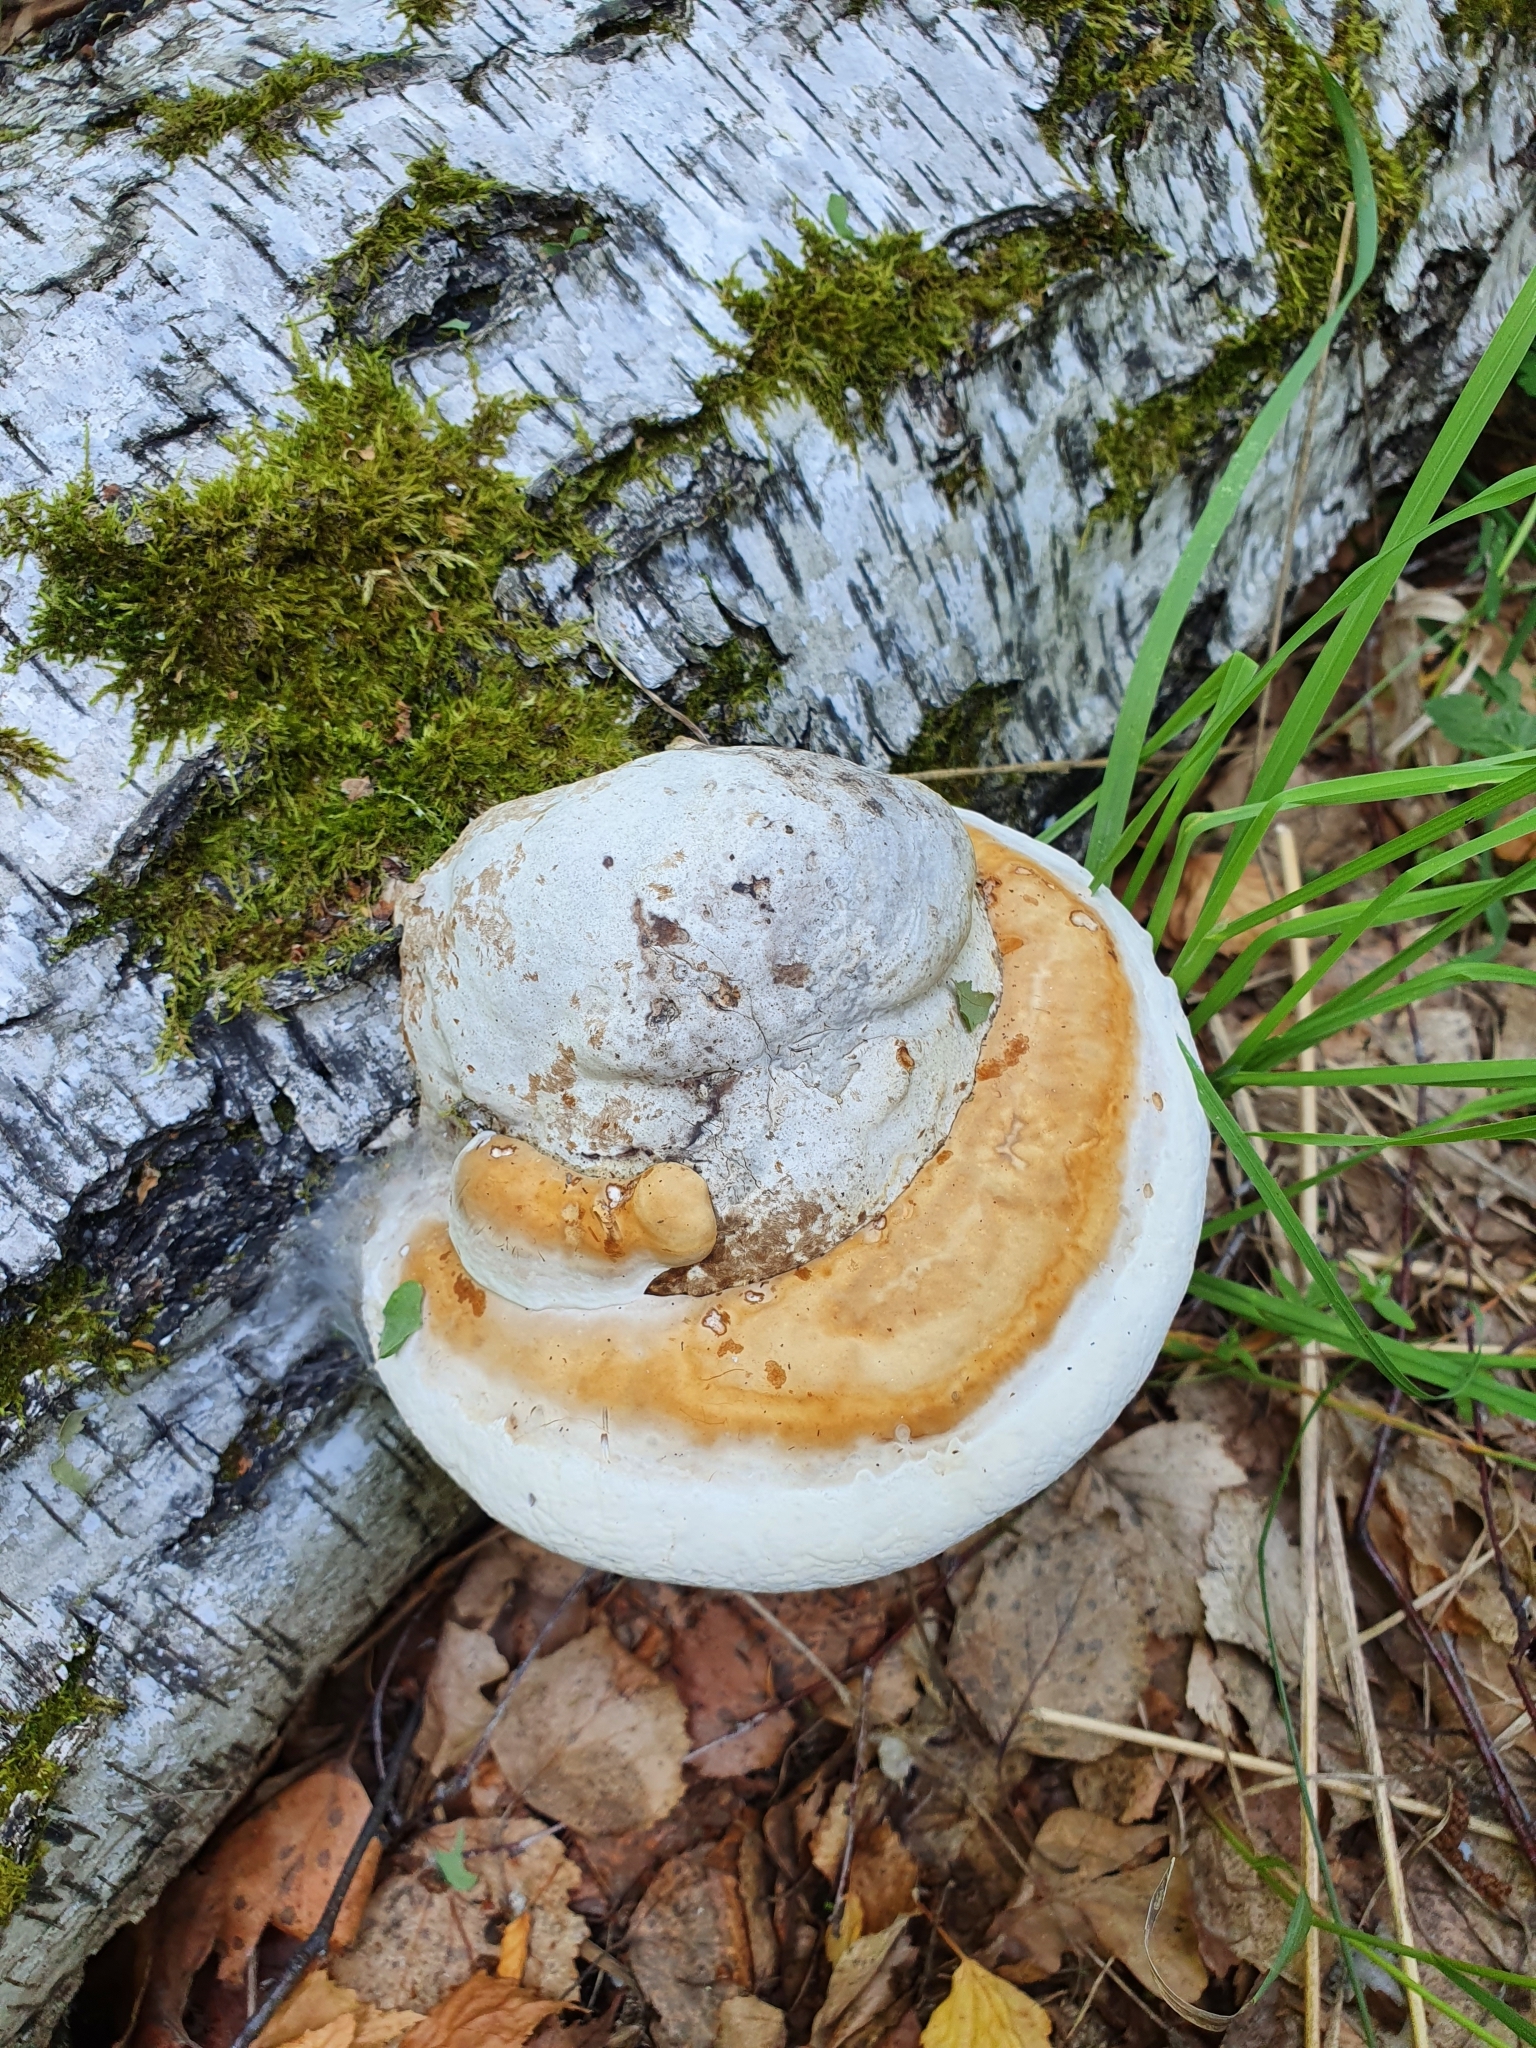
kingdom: Fungi
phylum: Basidiomycota
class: Agaricomycetes
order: Polyporales
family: Fomitopsidaceae
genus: Fomitopsis
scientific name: Fomitopsis pinicola
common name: Red-belted bracket
